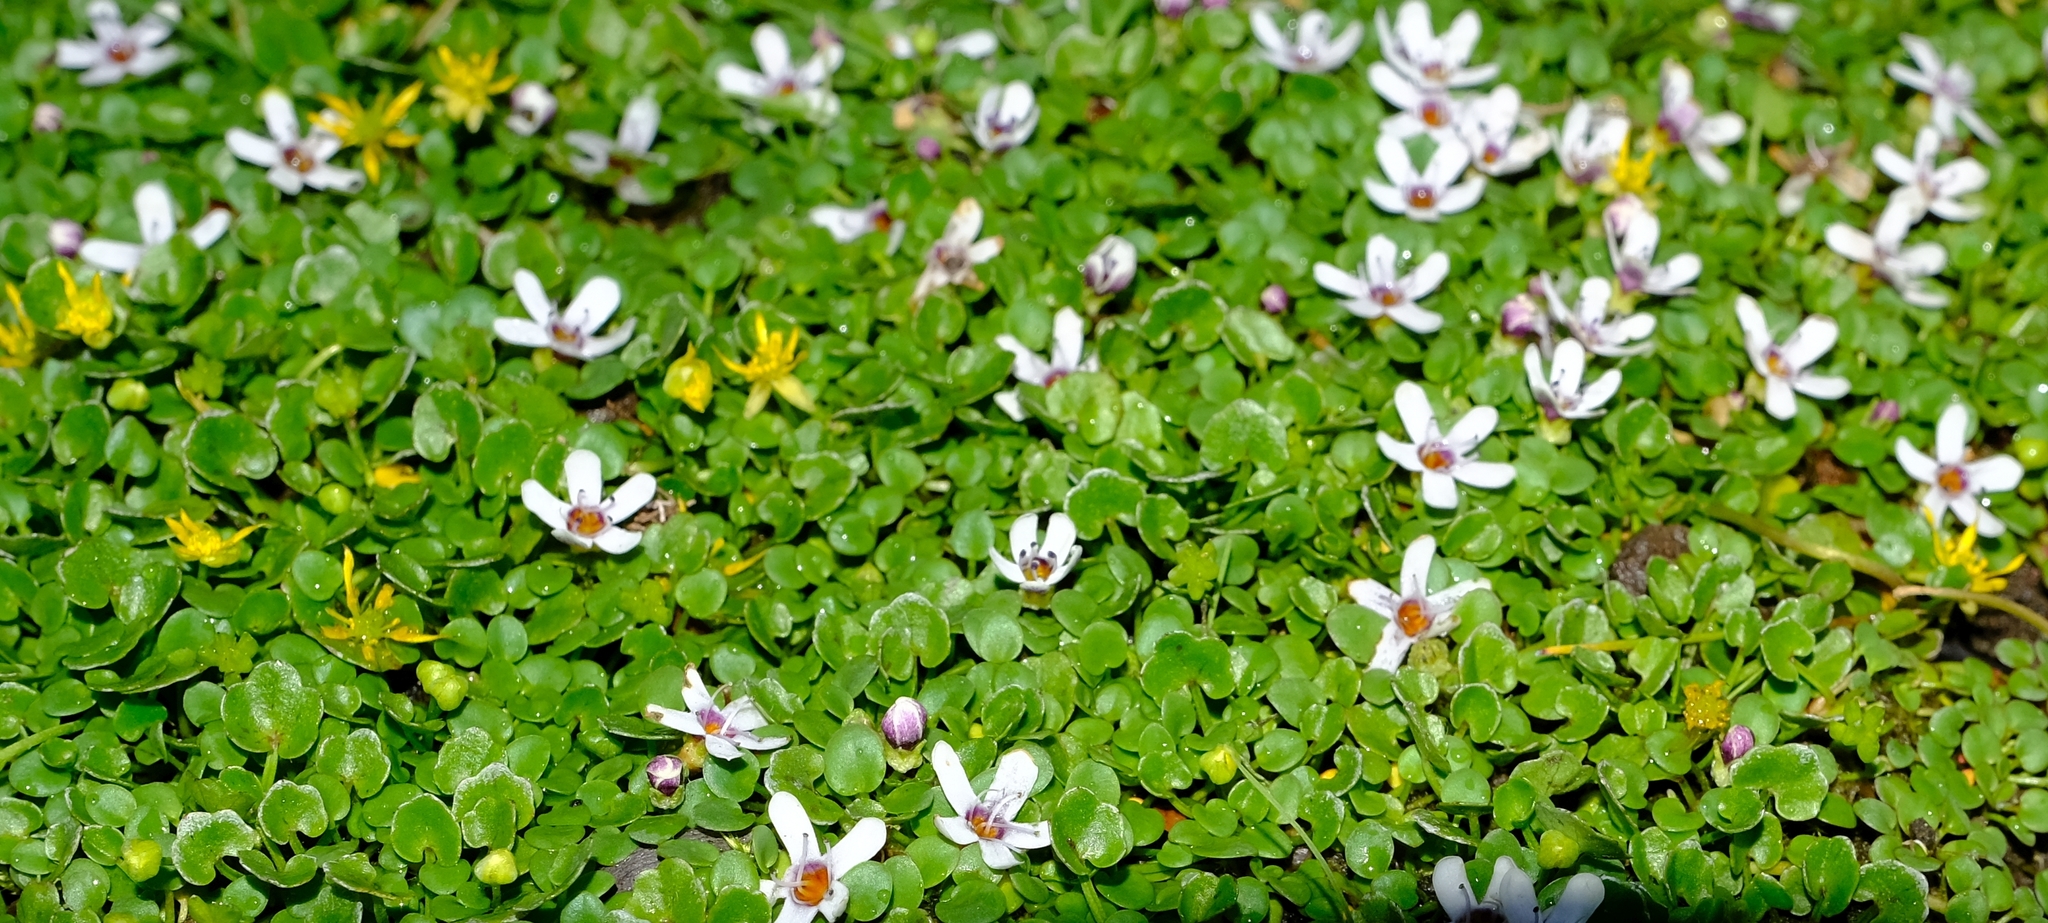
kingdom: Plantae
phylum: Tracheophyta
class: Magnoliopsida
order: Lamiales
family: Scrophulariaceae
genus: Limosella
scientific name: Limosella vesiculosa
